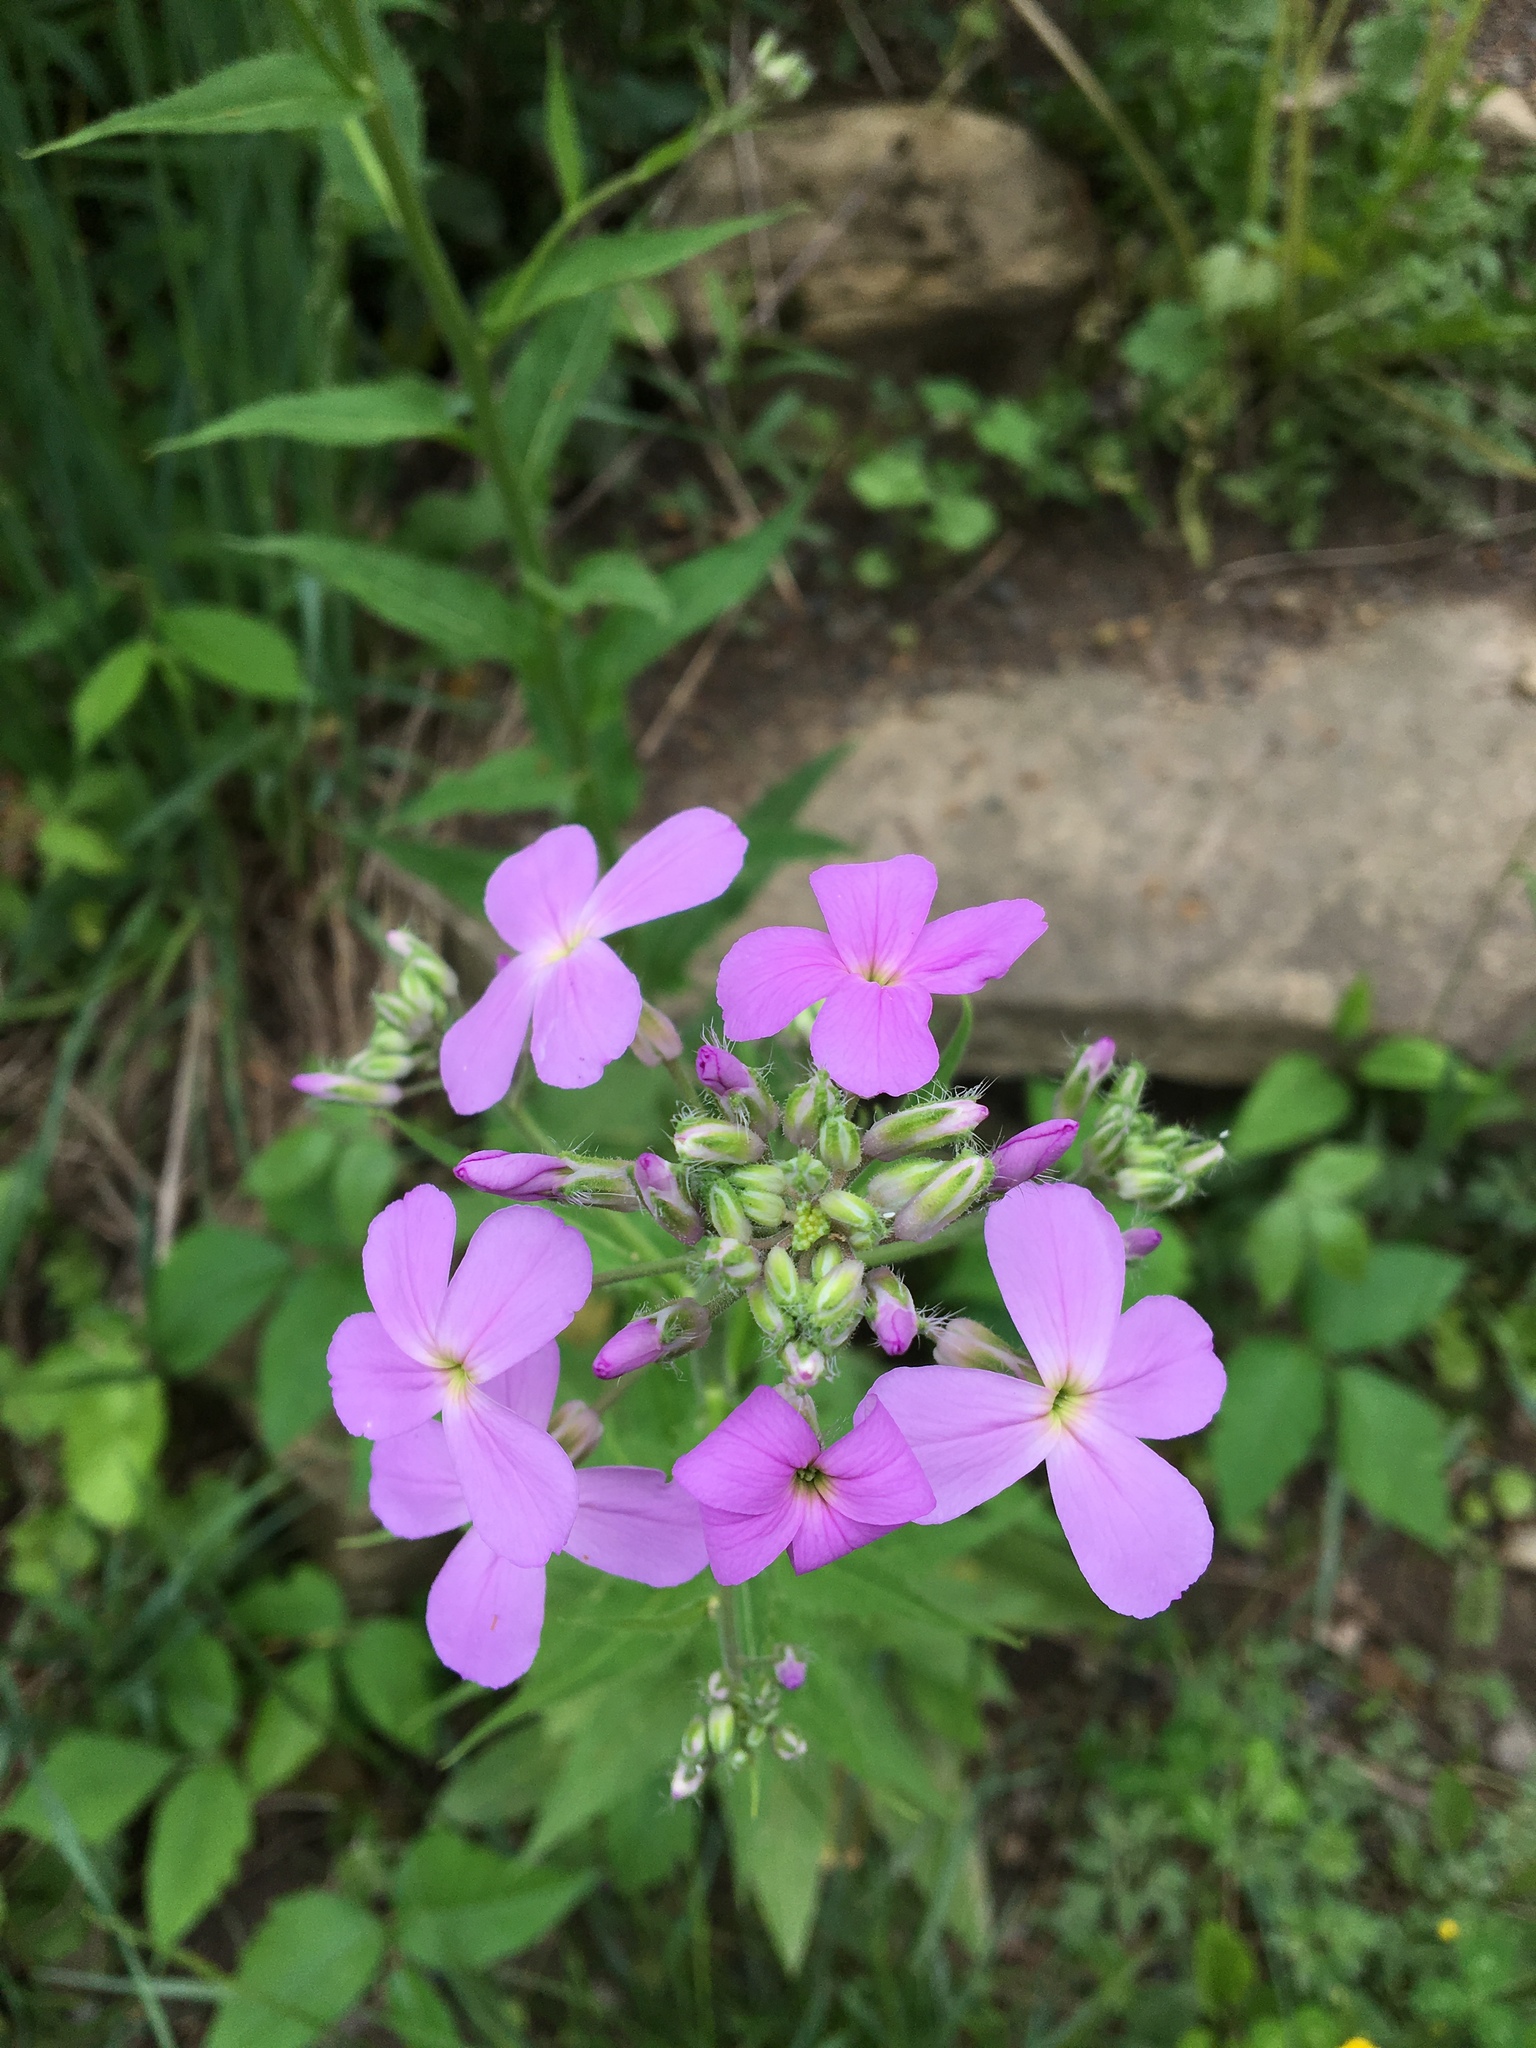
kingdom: Plantae
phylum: Tracheophyta
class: Magnoliopsida
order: Brassicales
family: Brassicaceae
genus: Hesperis
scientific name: Hesperis matronalis
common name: Dame's-violet
